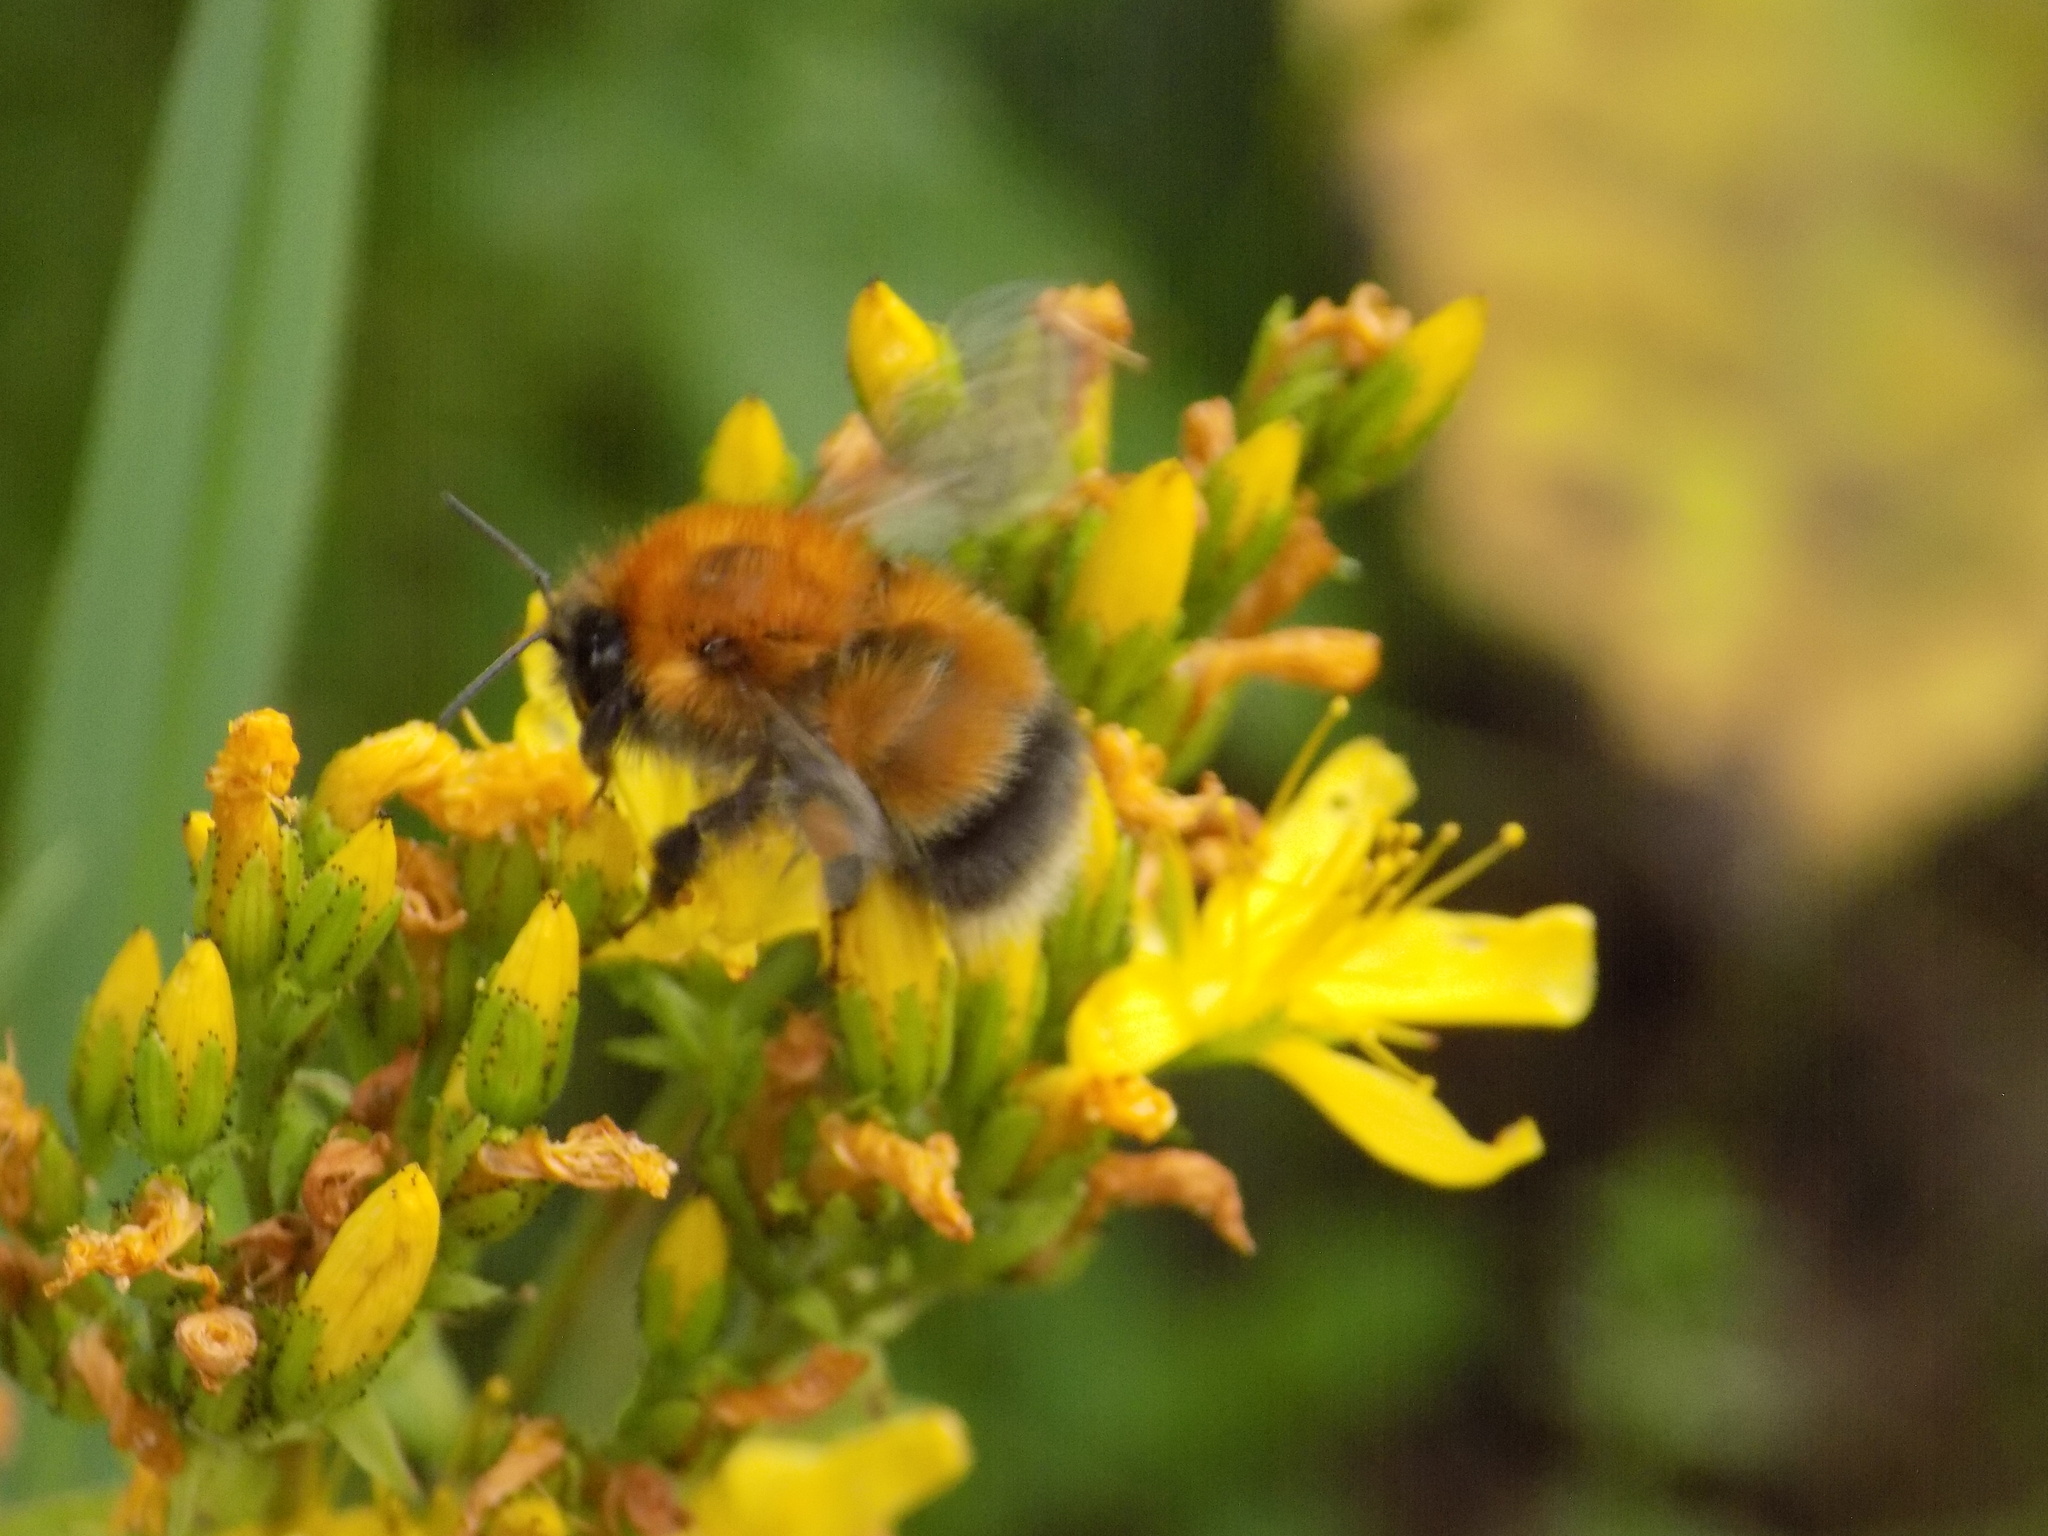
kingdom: Animalia
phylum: Arthropoda
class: Insecta
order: Hymenoptera
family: Apidae
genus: Bombus
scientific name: Bombus hypnorum
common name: New garden bumblebee
